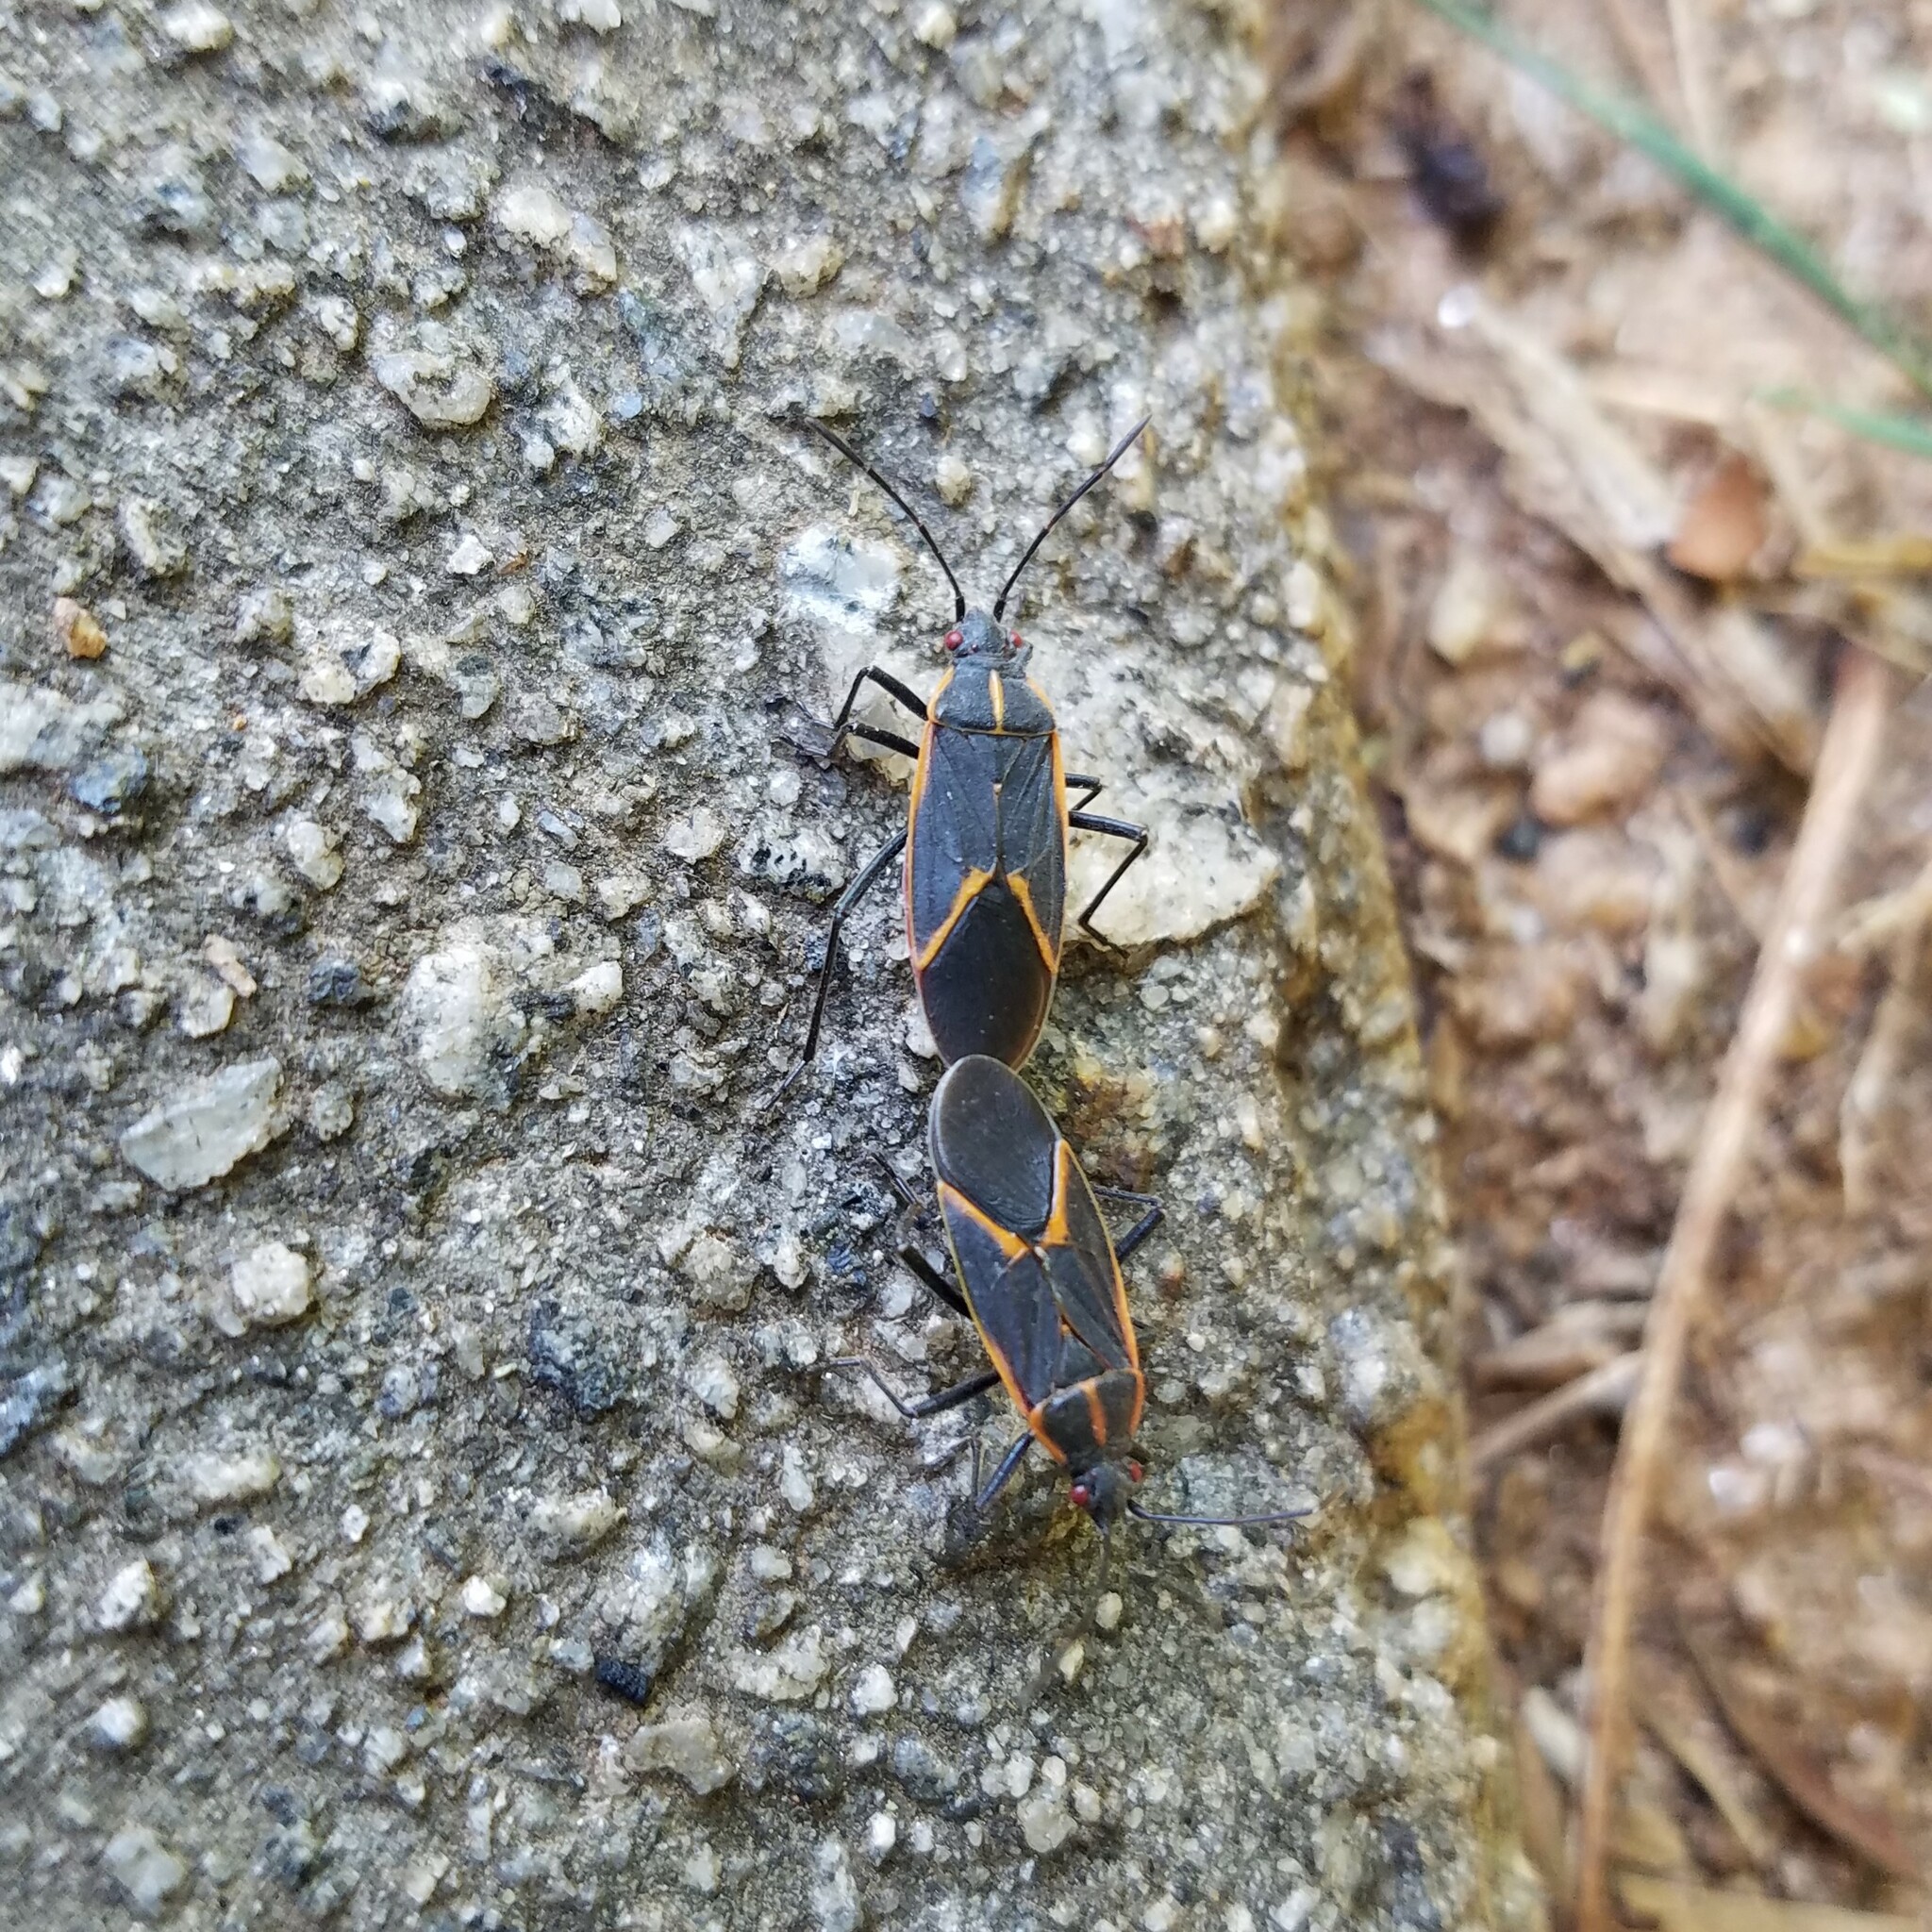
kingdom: Animalia
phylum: Arthropoda
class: Insecta
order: Hemiptera
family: Rhopalidae
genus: Boisea
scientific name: Boisea trivittata
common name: Boxelder bug
